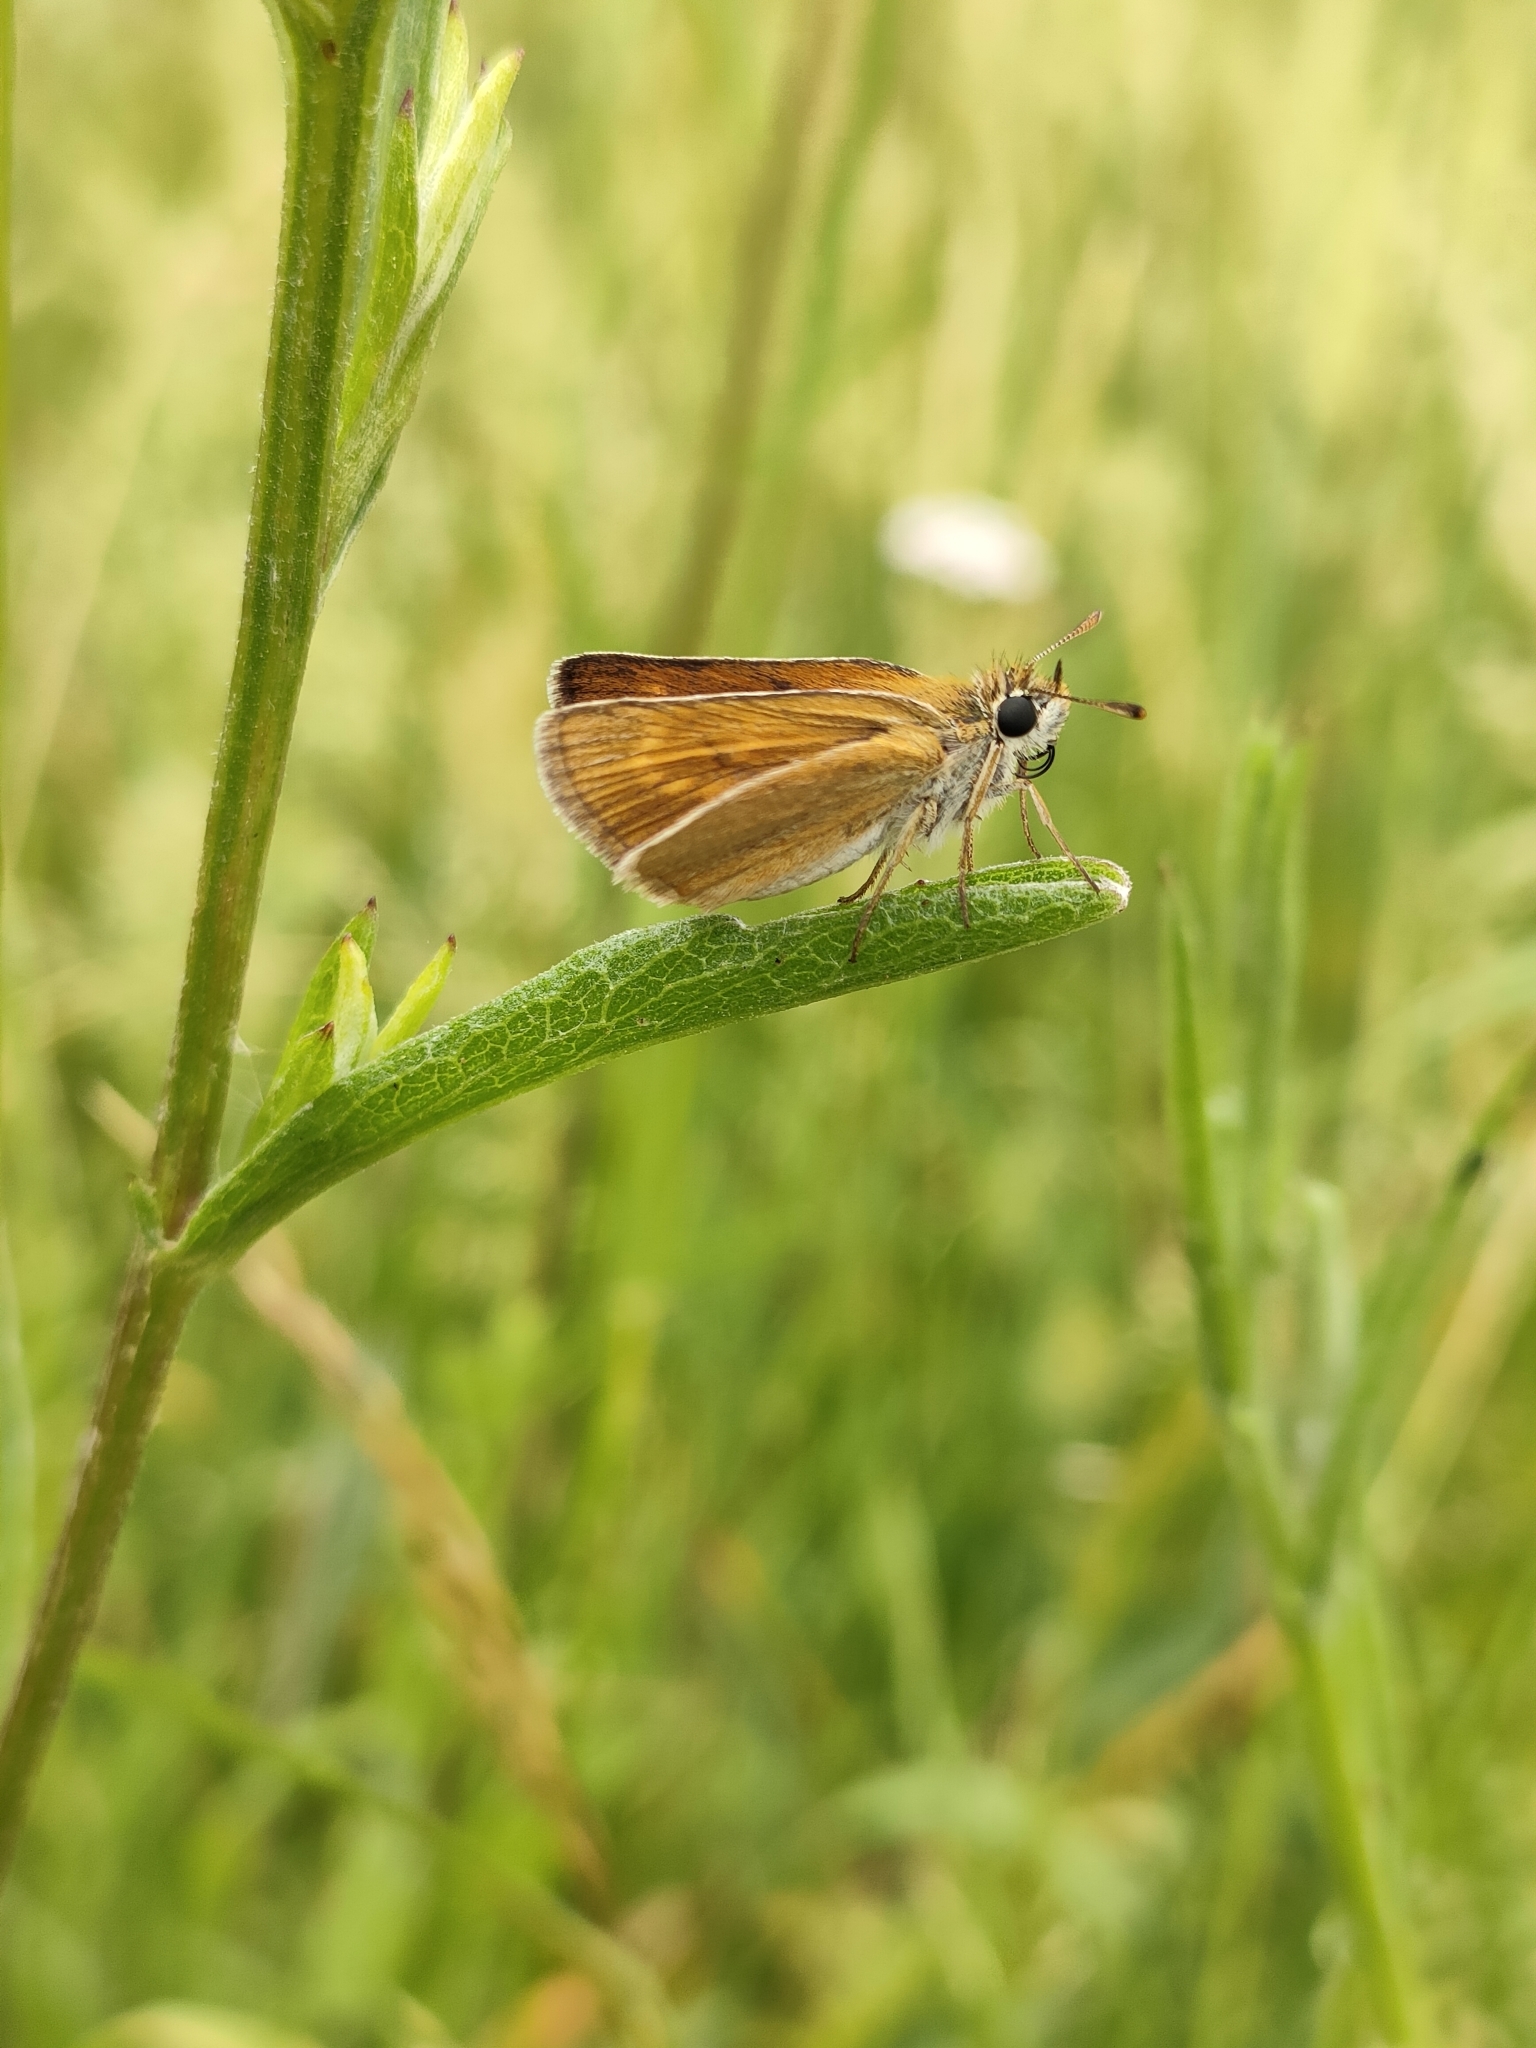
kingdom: Animalia
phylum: Arthropoda
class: Insecta
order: Lepidoptera
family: Hesperiidae
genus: Thymelicus
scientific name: Thymelicus acteon
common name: Lulworth skipper
